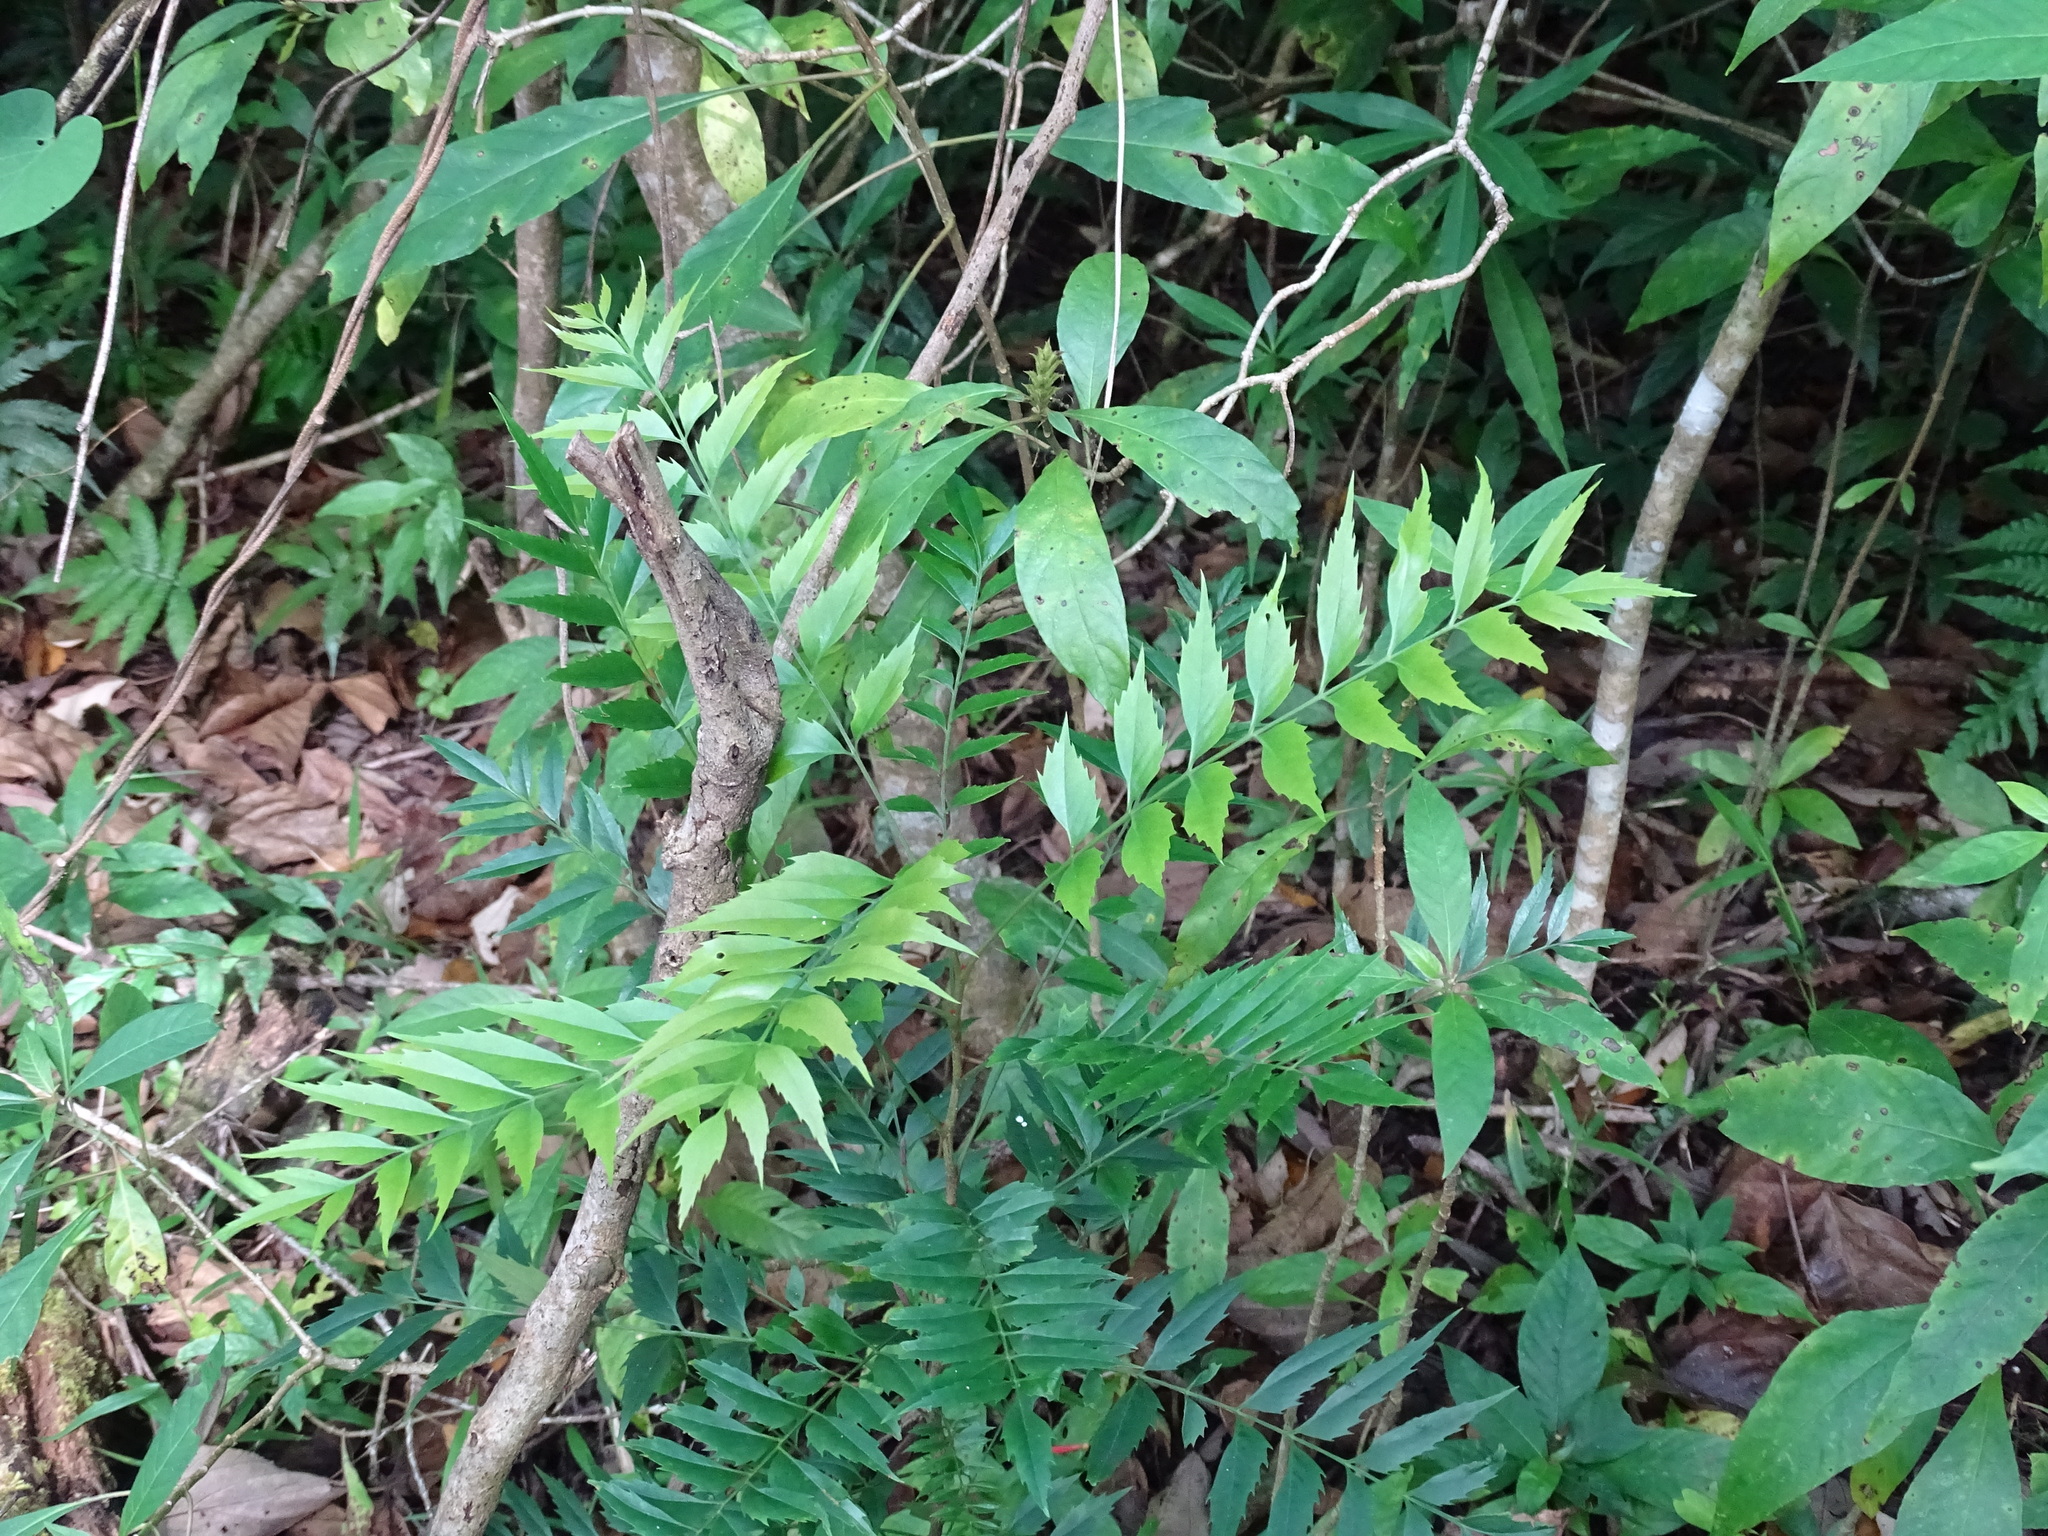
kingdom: Plantae
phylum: Tracheophyta
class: Magnoliopsida
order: Proteales
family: Proteaceae
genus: Roupala
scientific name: Roupala montana
